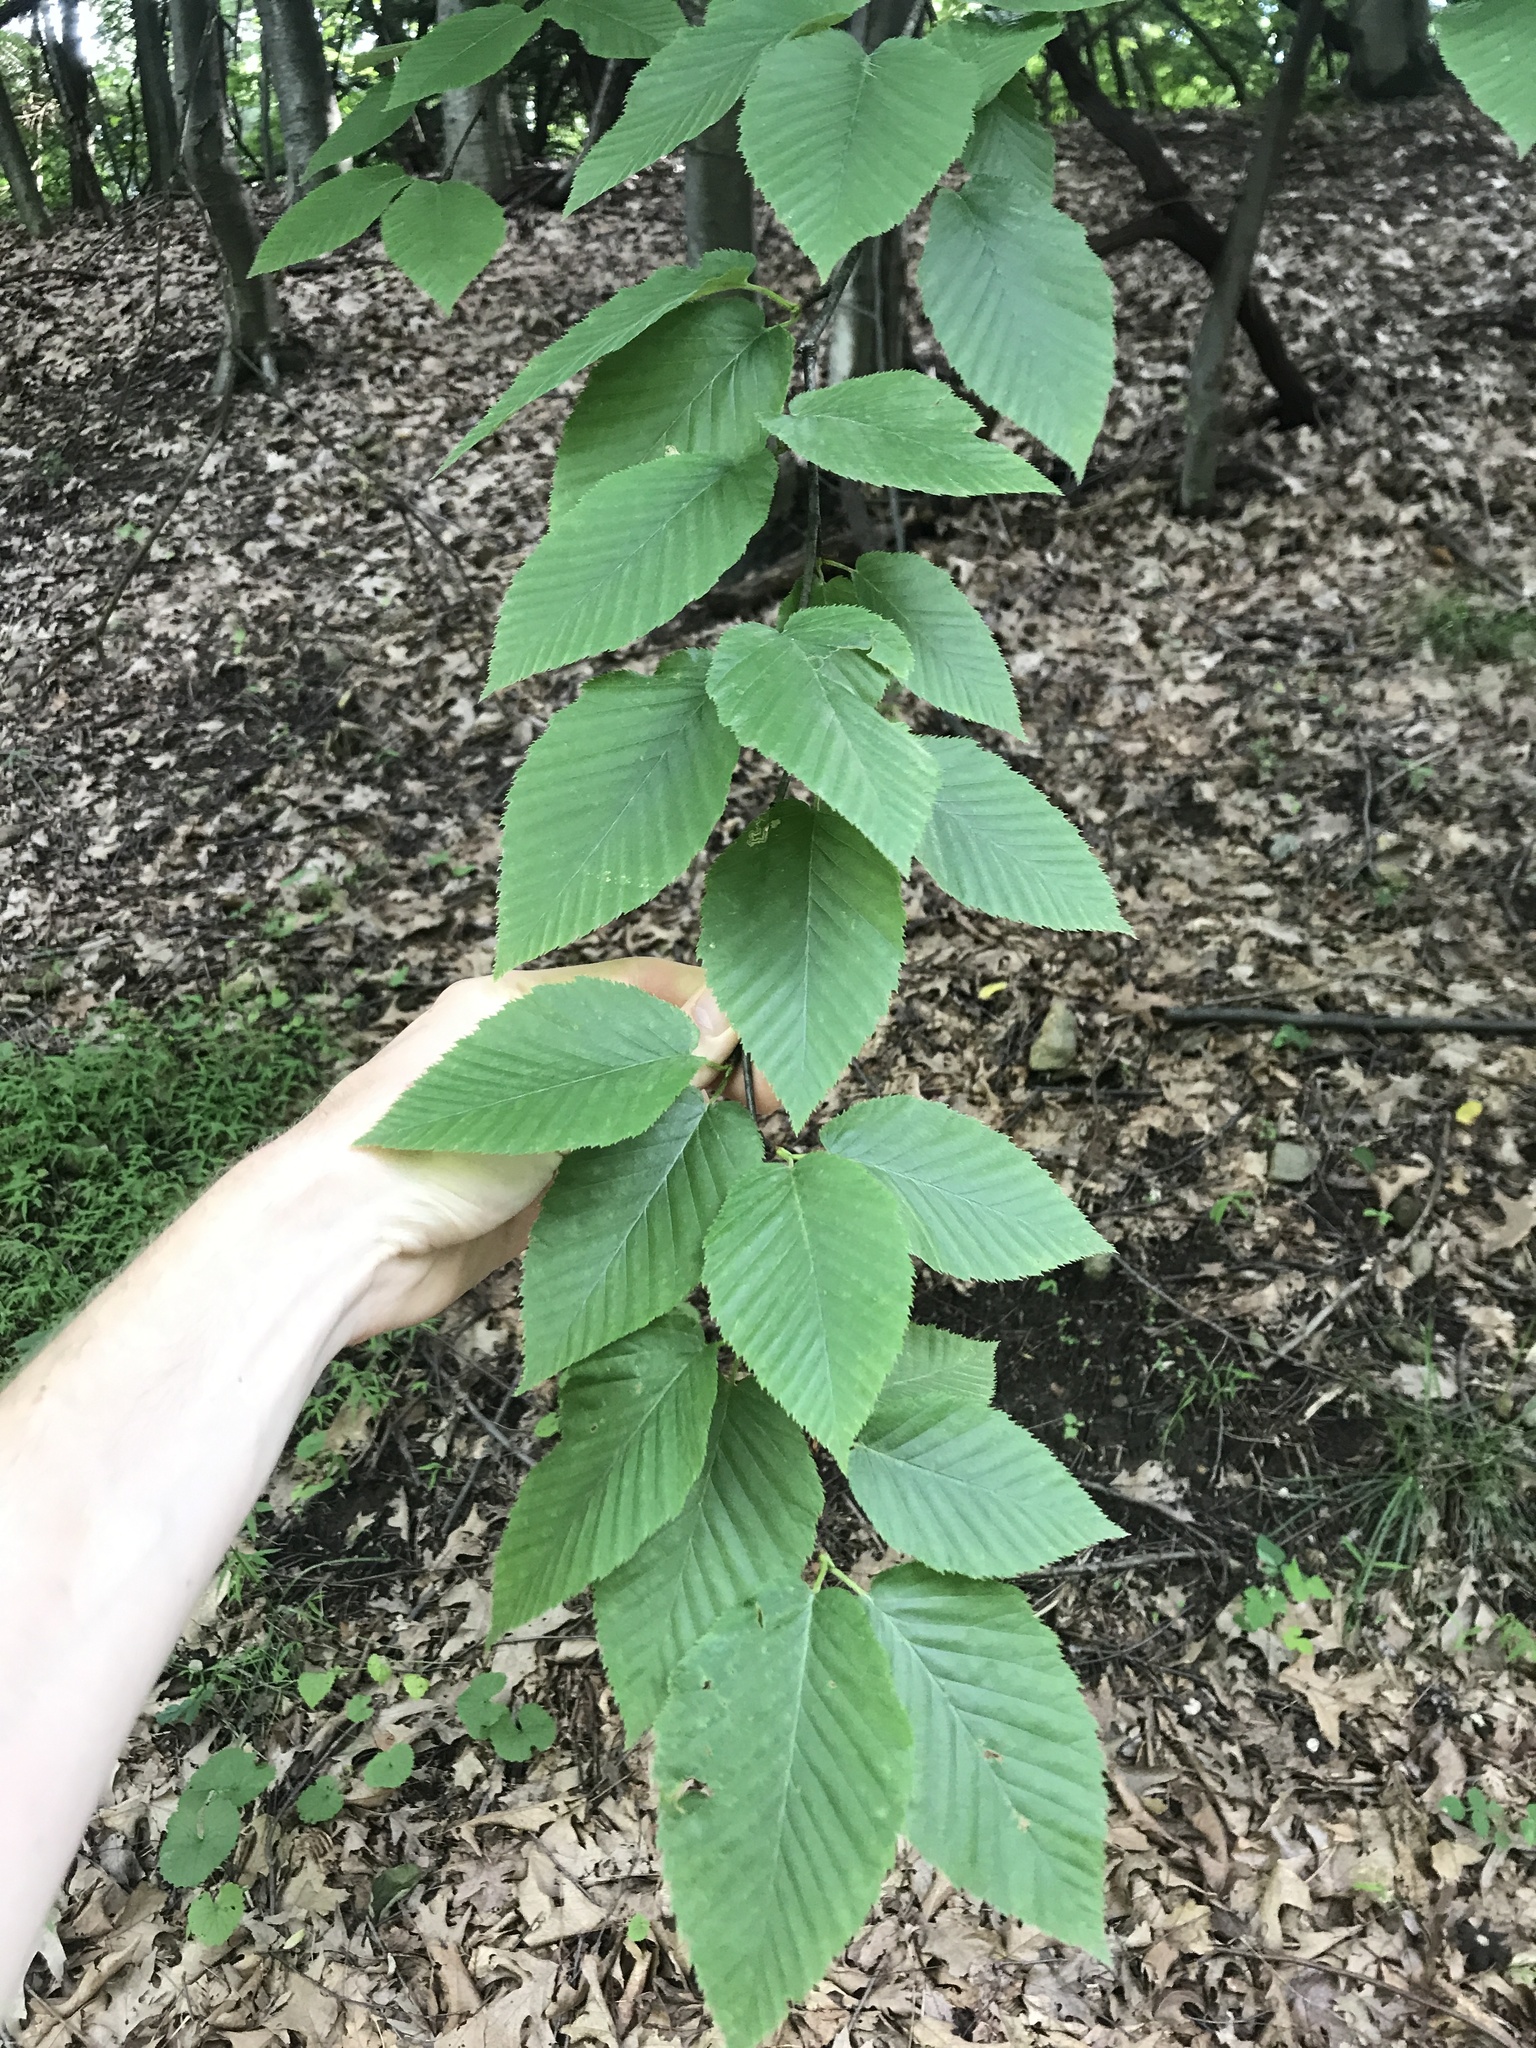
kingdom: Plantae
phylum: Tracheophyta
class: Magnoliopsida
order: Fagales
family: Betulaceae
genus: Betula
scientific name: Betula lenta
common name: Black birch
